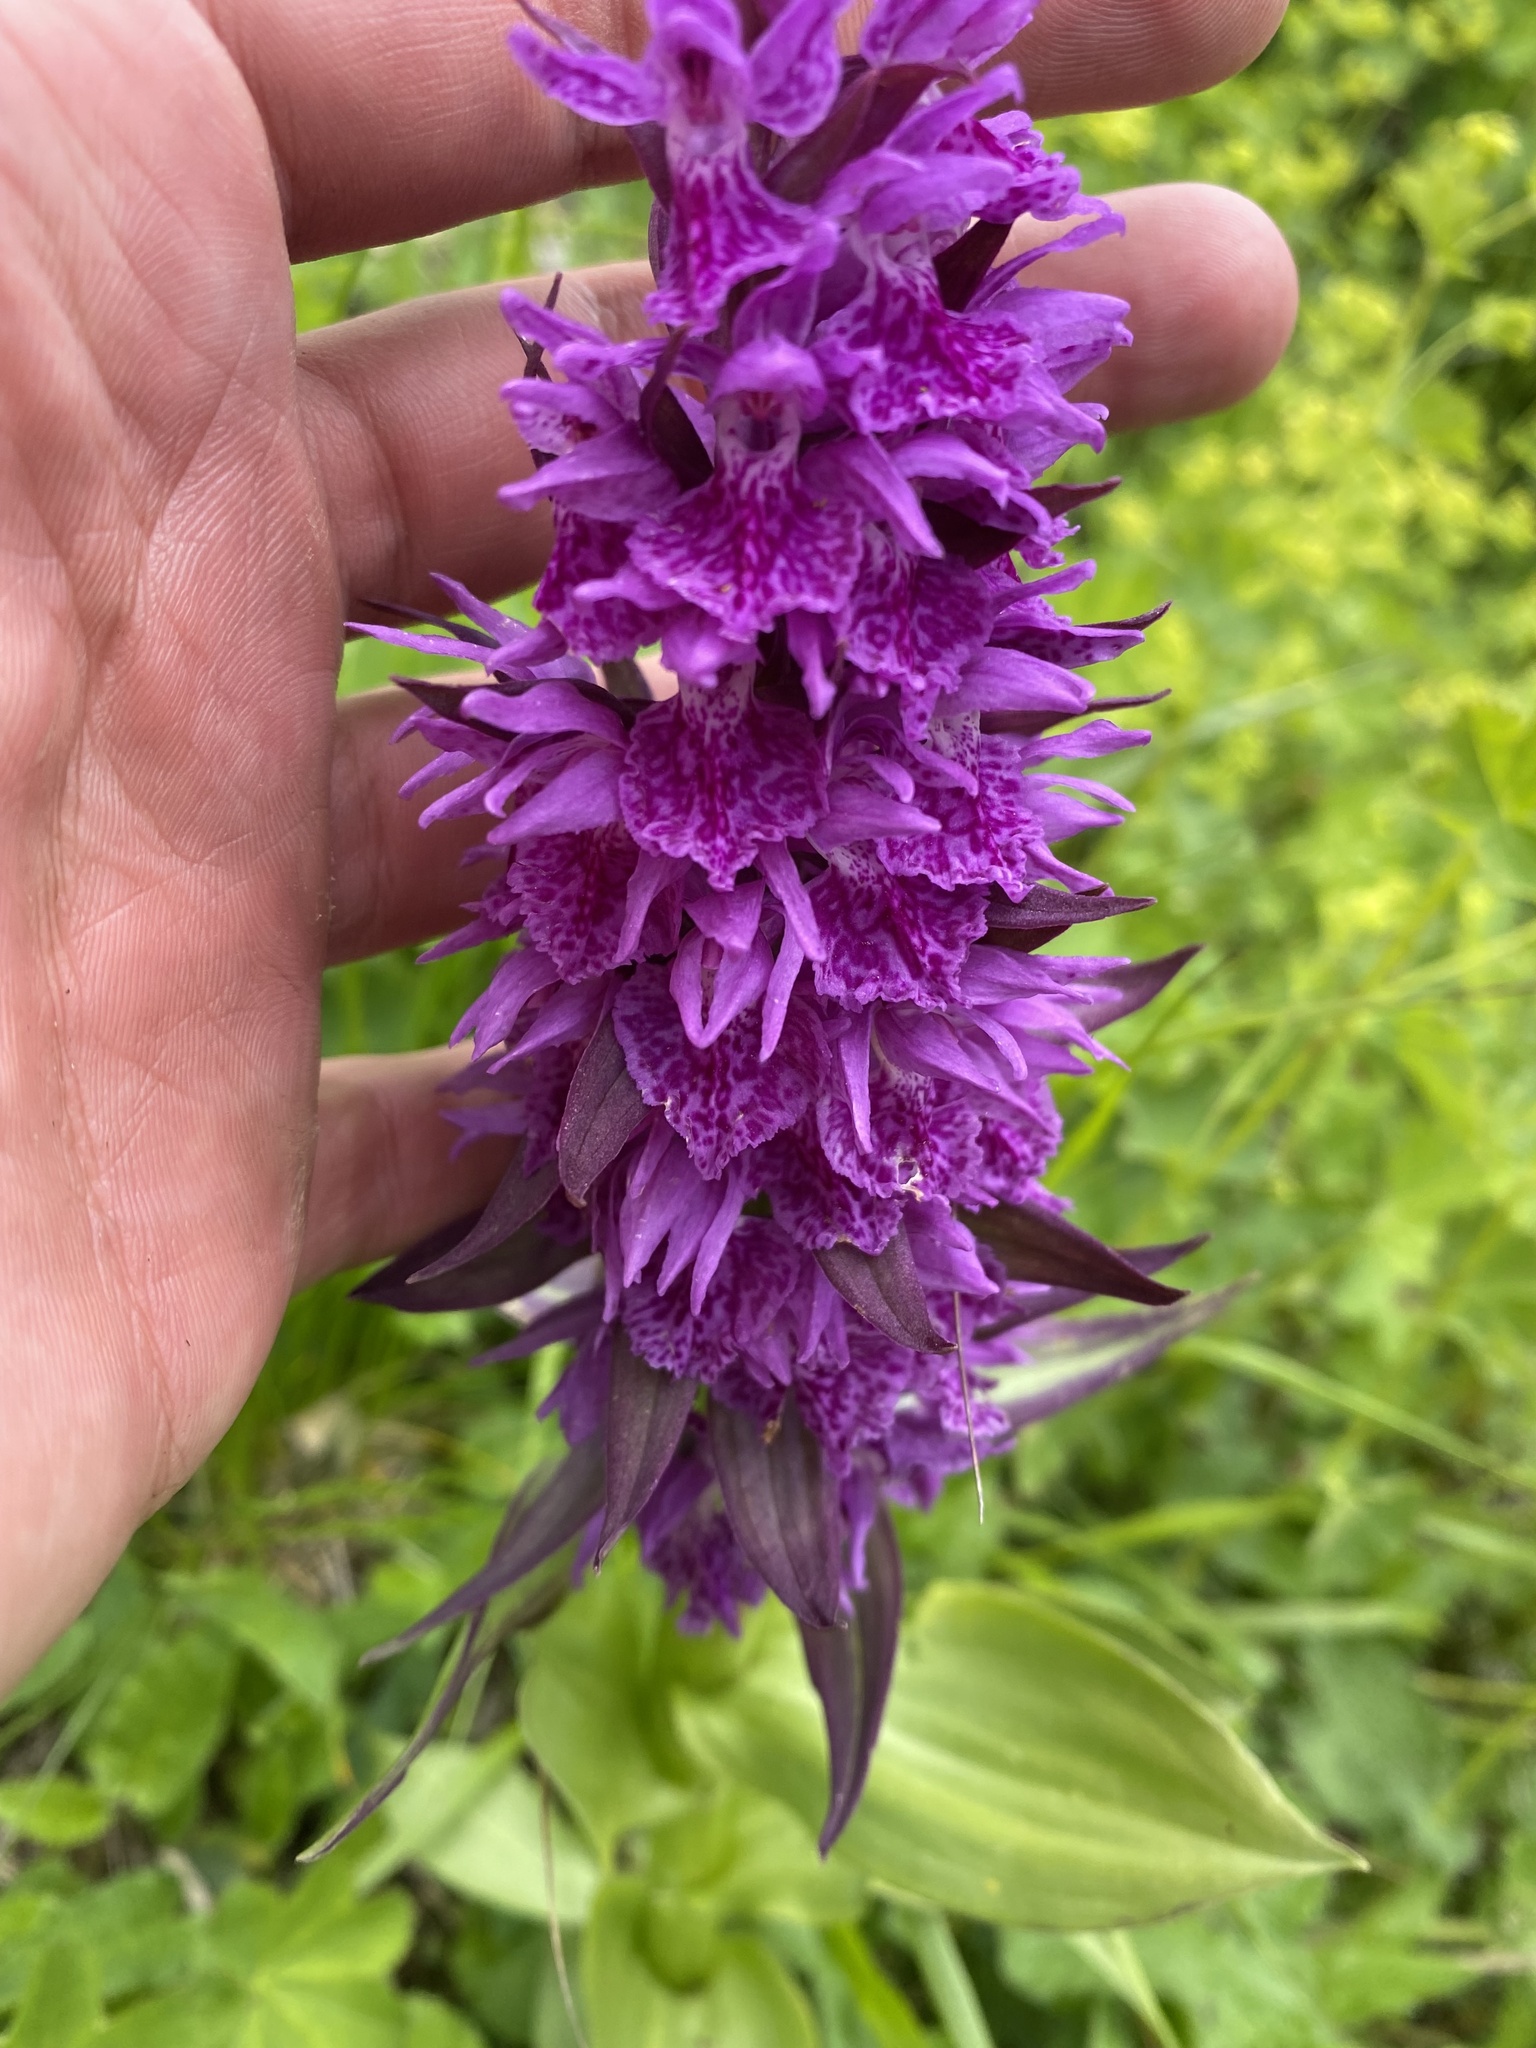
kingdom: Plantae
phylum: Tracheophyta
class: Liliopsida
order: Asparagales
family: Orchidaceae
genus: Dactylorhiza
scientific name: Dactylorhiza euxina
